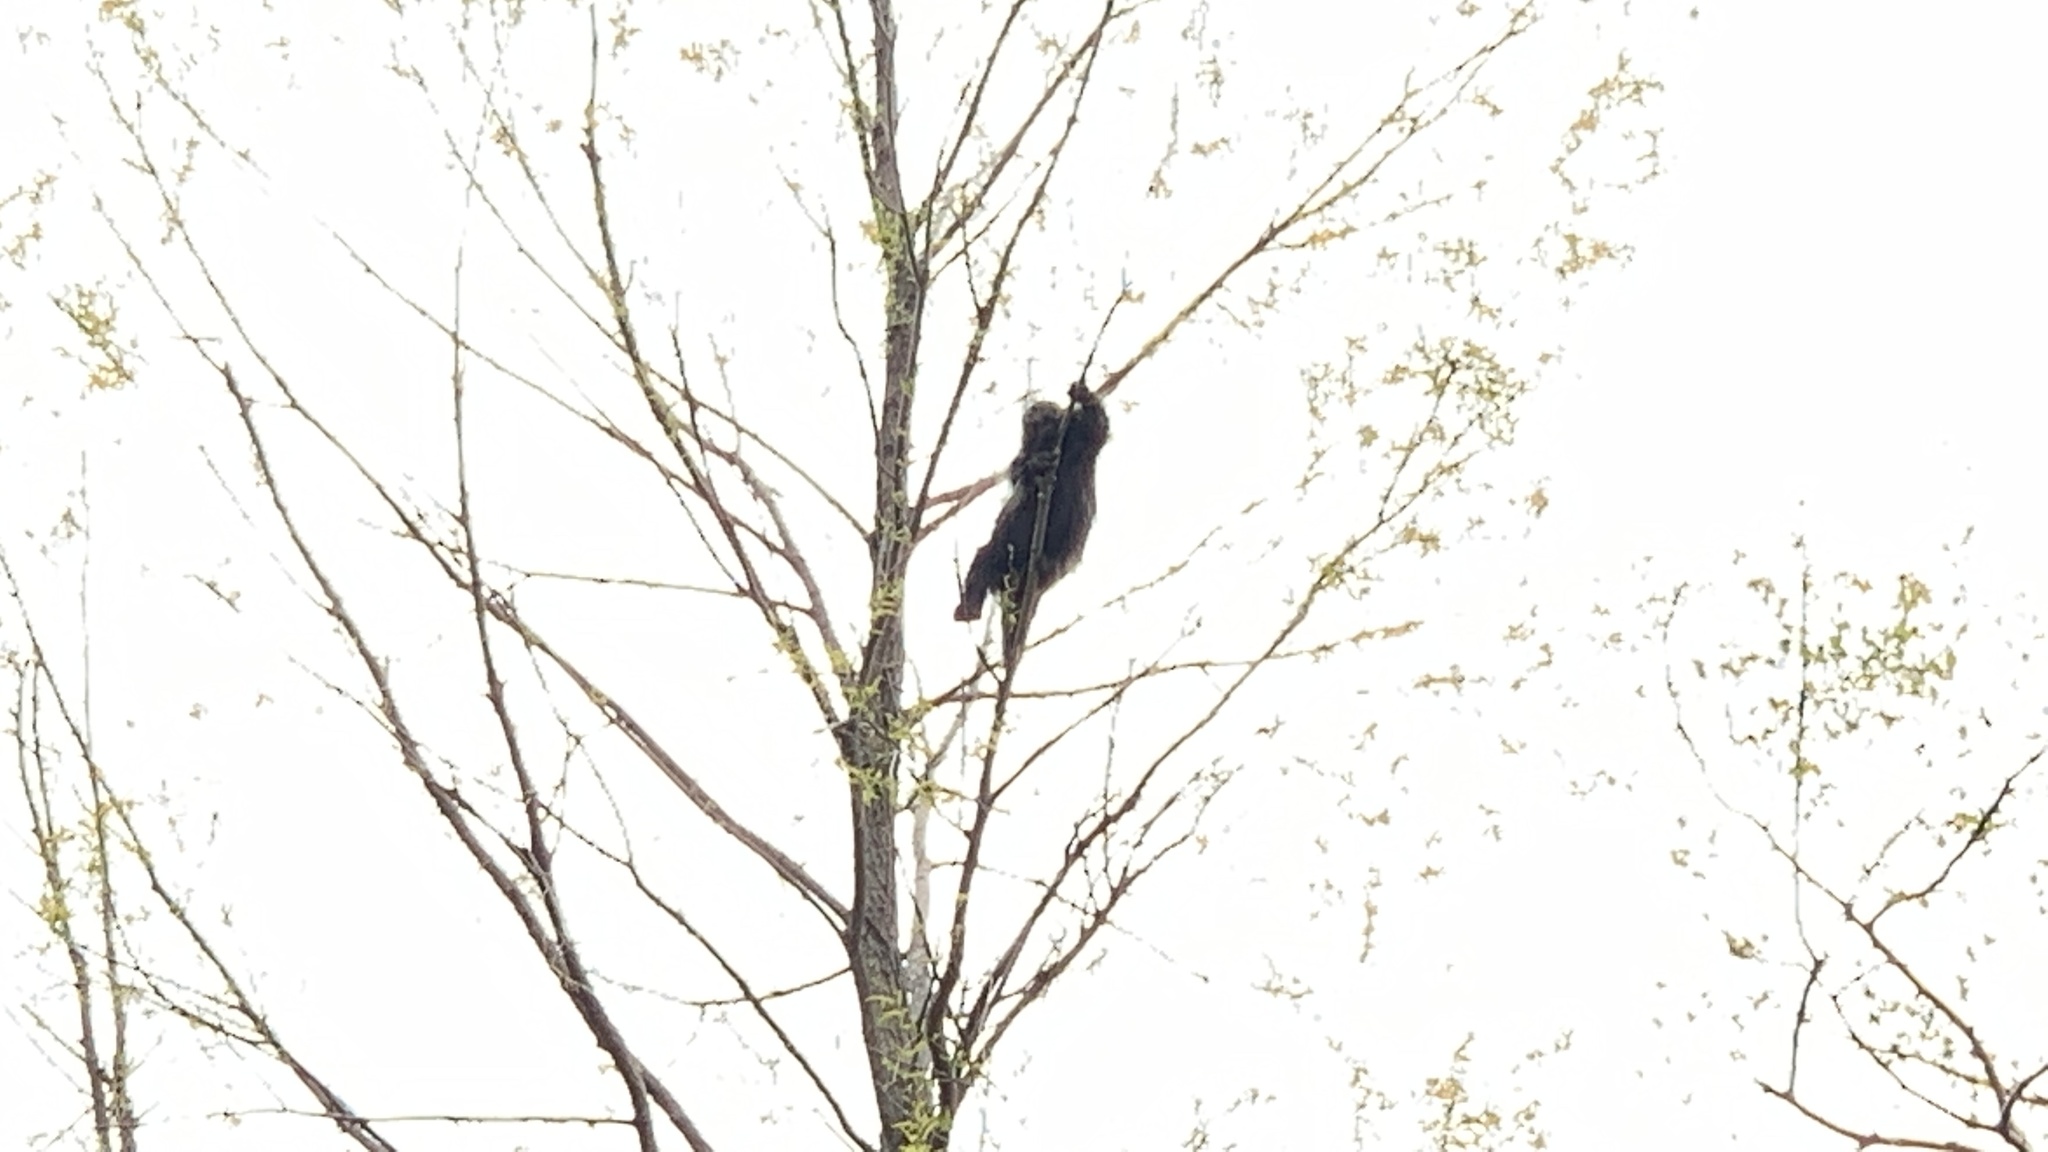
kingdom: Animalia
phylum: Chordata
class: Mammalia
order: Rodentia
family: Erethizontidae
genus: Erethizon
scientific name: Erethizon dorsatus
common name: North american porcupine
